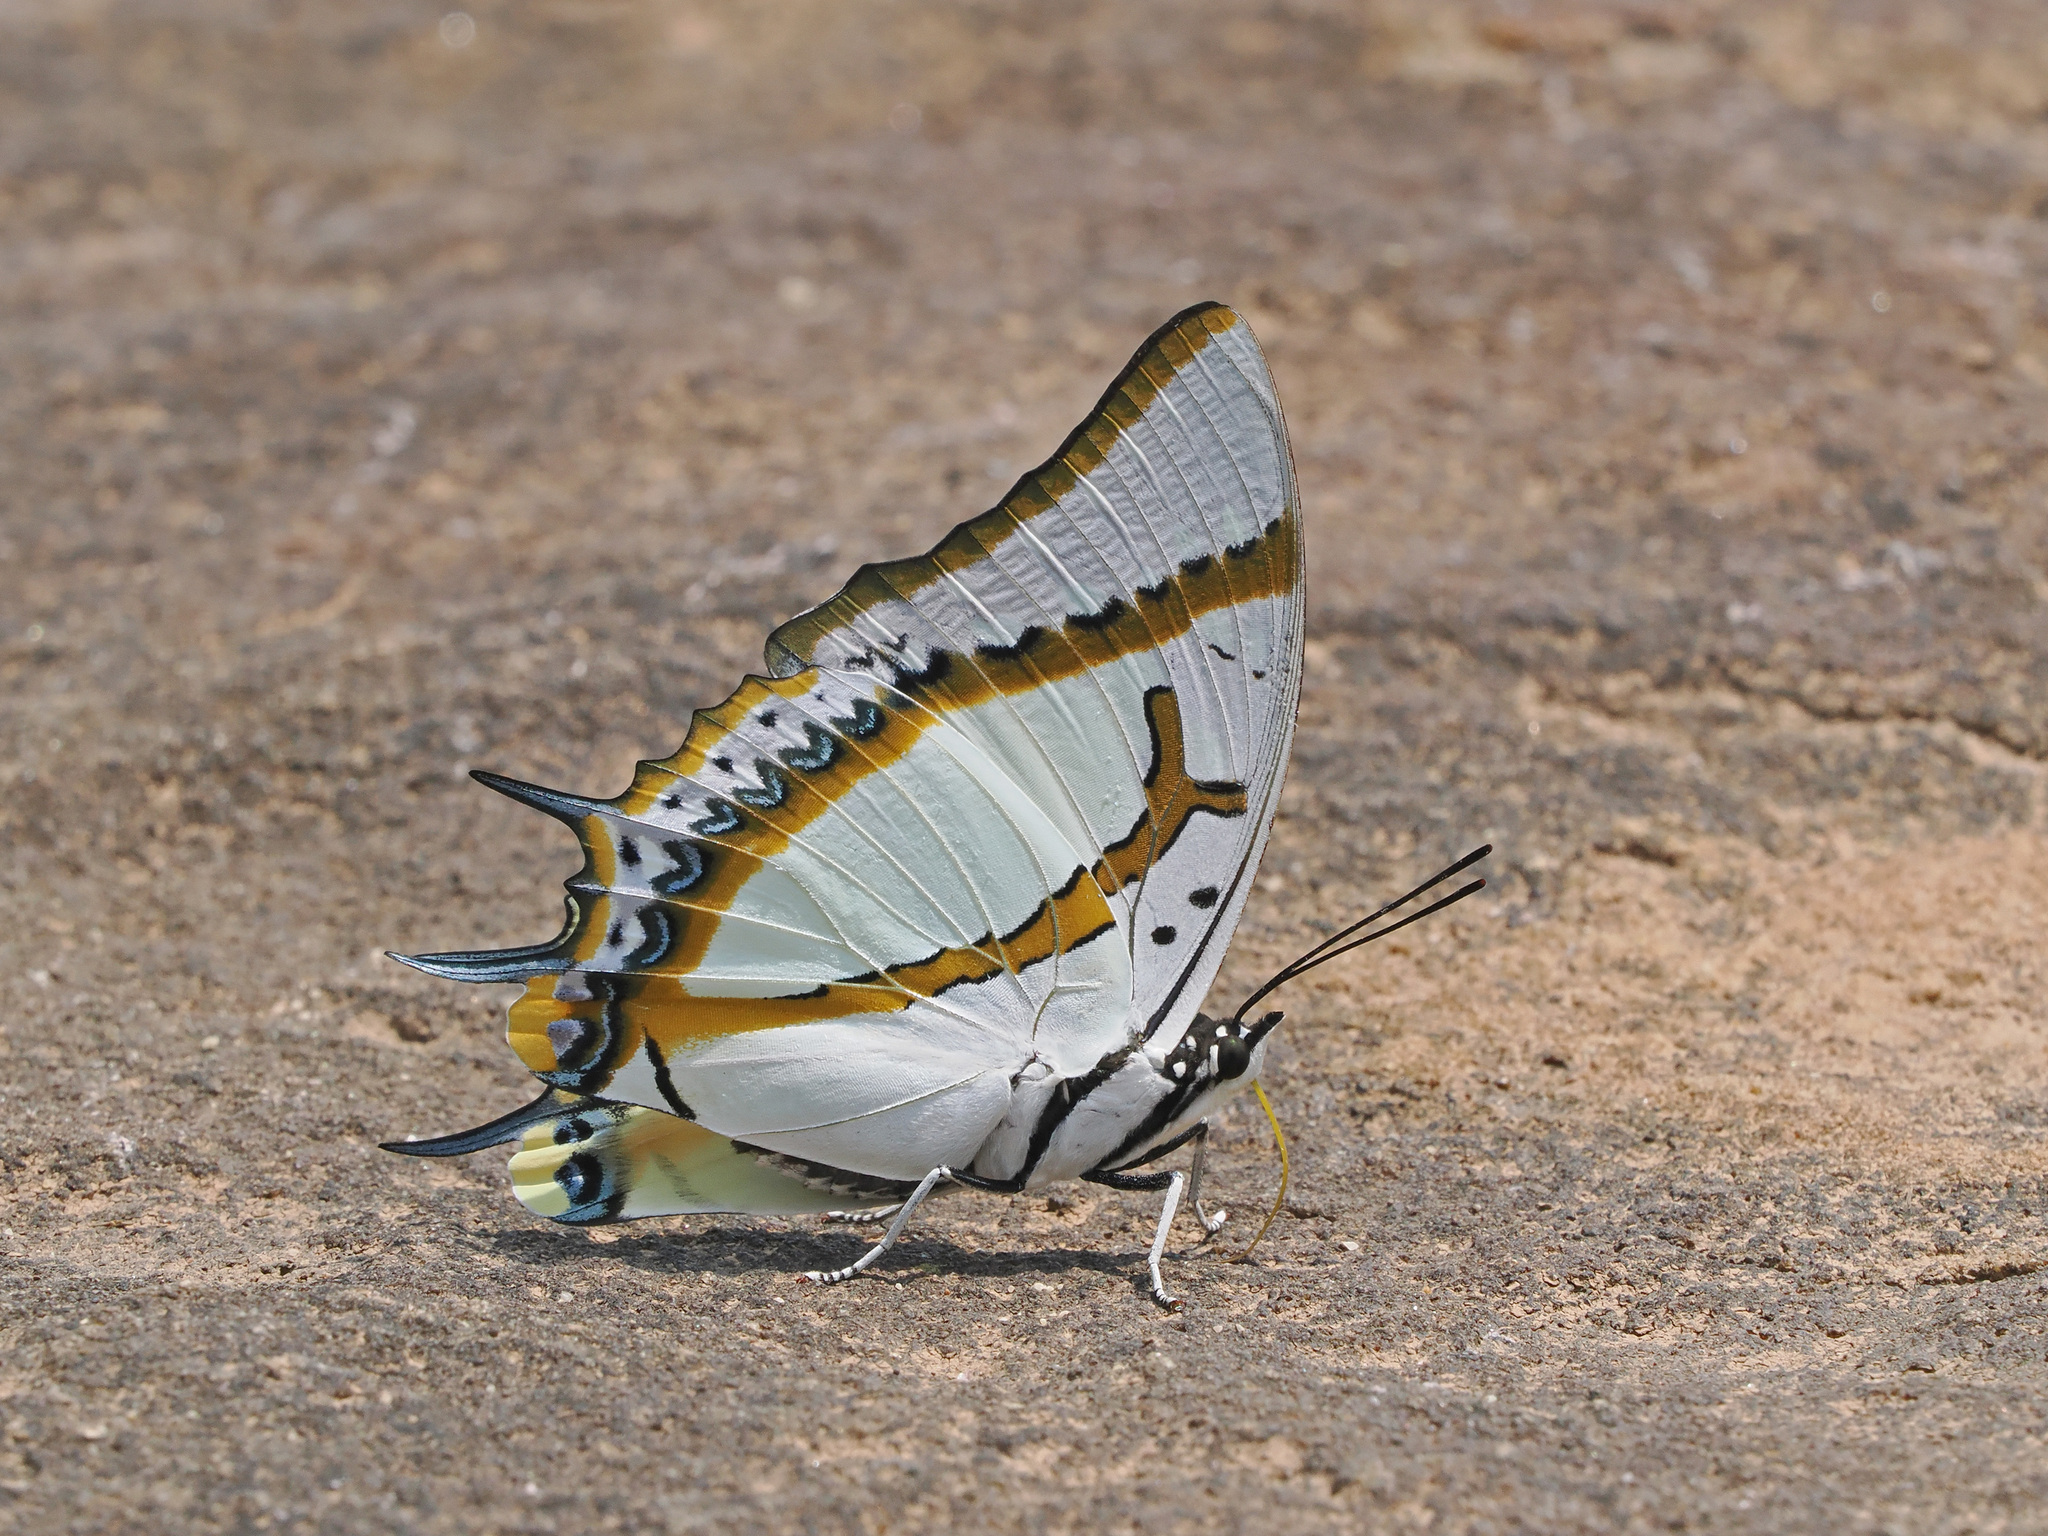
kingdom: Animalia
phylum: Arthropoda
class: Insecta
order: Lepidoptera
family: Nymphalidae
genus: Polyura
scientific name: Polyura eudamippus
